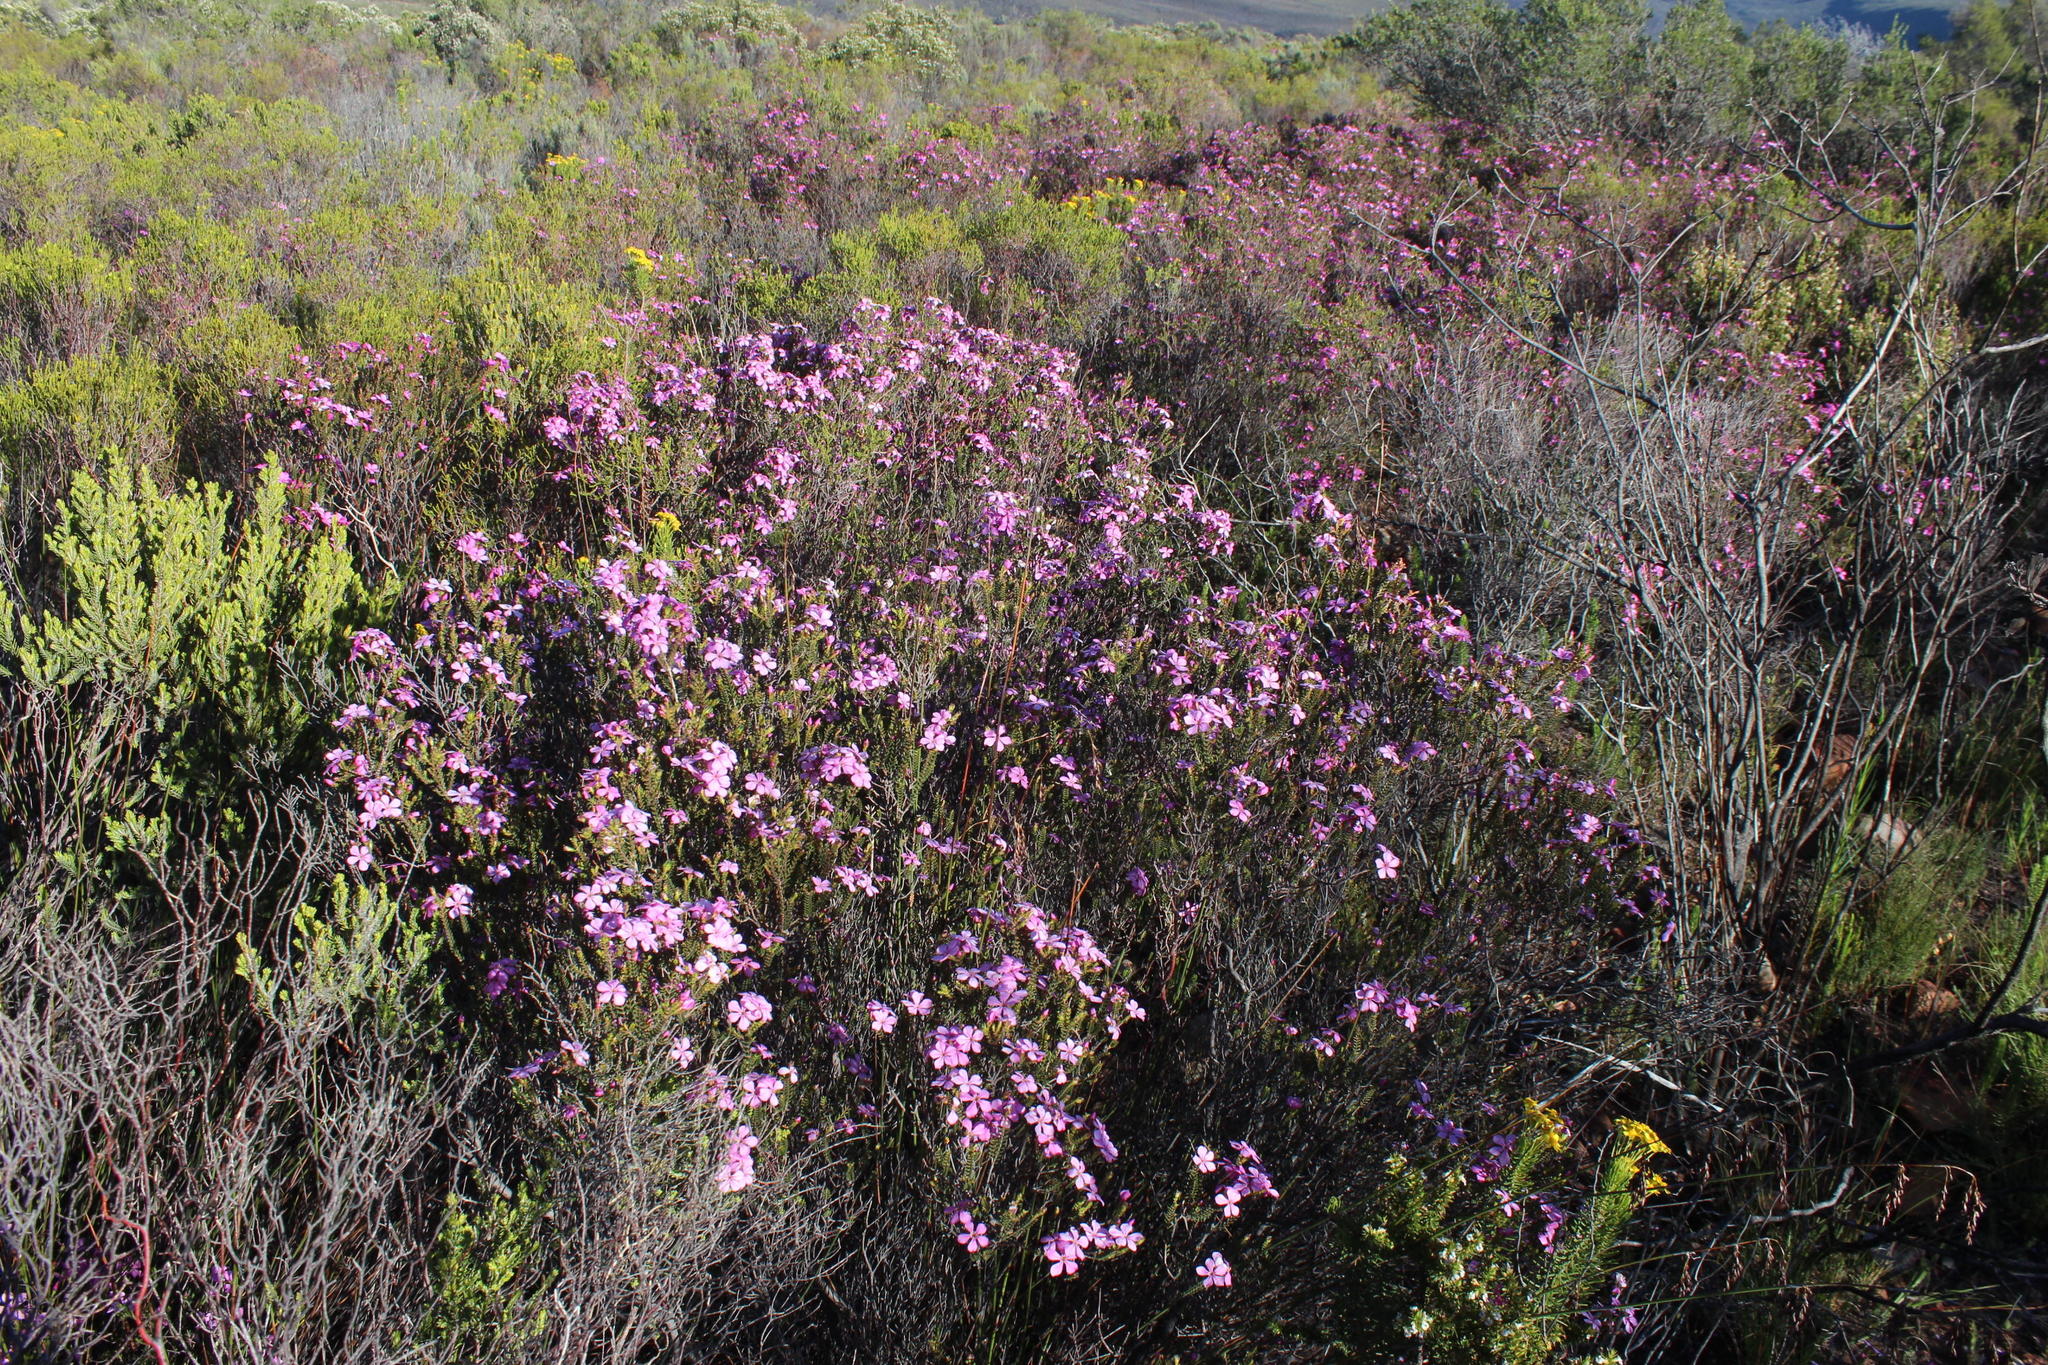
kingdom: Plantae
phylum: Tracheophyta
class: Magnoliopsida
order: Sapindales
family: Rutaceae
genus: Acmadenia
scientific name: Acmadenia sheilae
